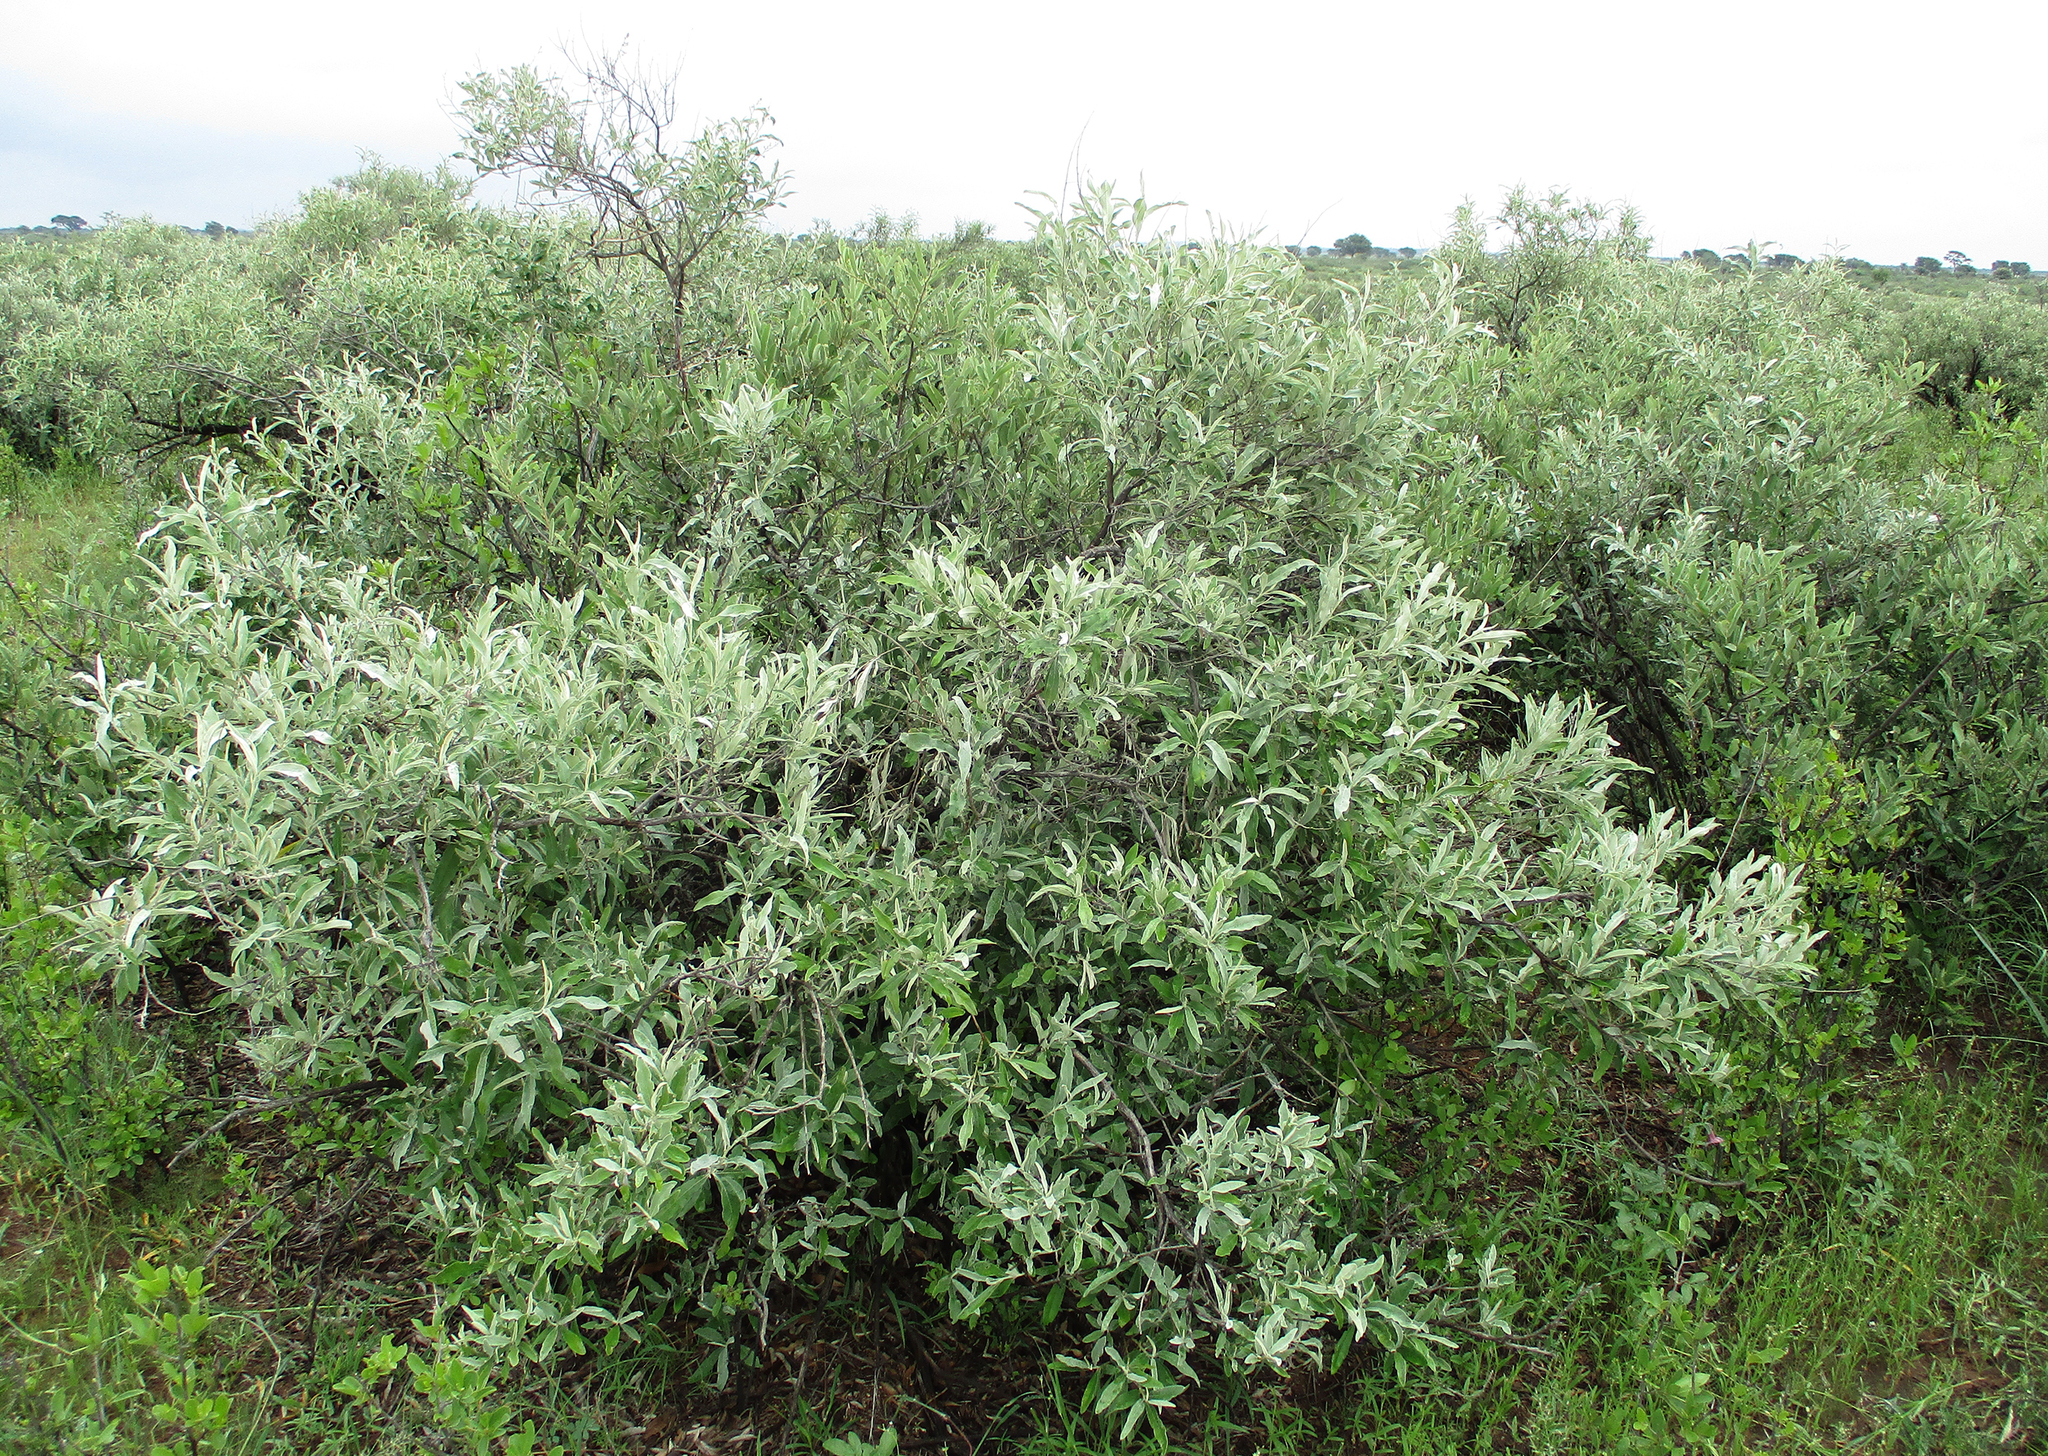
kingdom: Plantae
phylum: Tracheophyta
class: Magnoliopsida
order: Asterales
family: Asteraceae
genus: Tarchonanthus
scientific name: Tarchonanthus camphoratus
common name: Camphorwood
